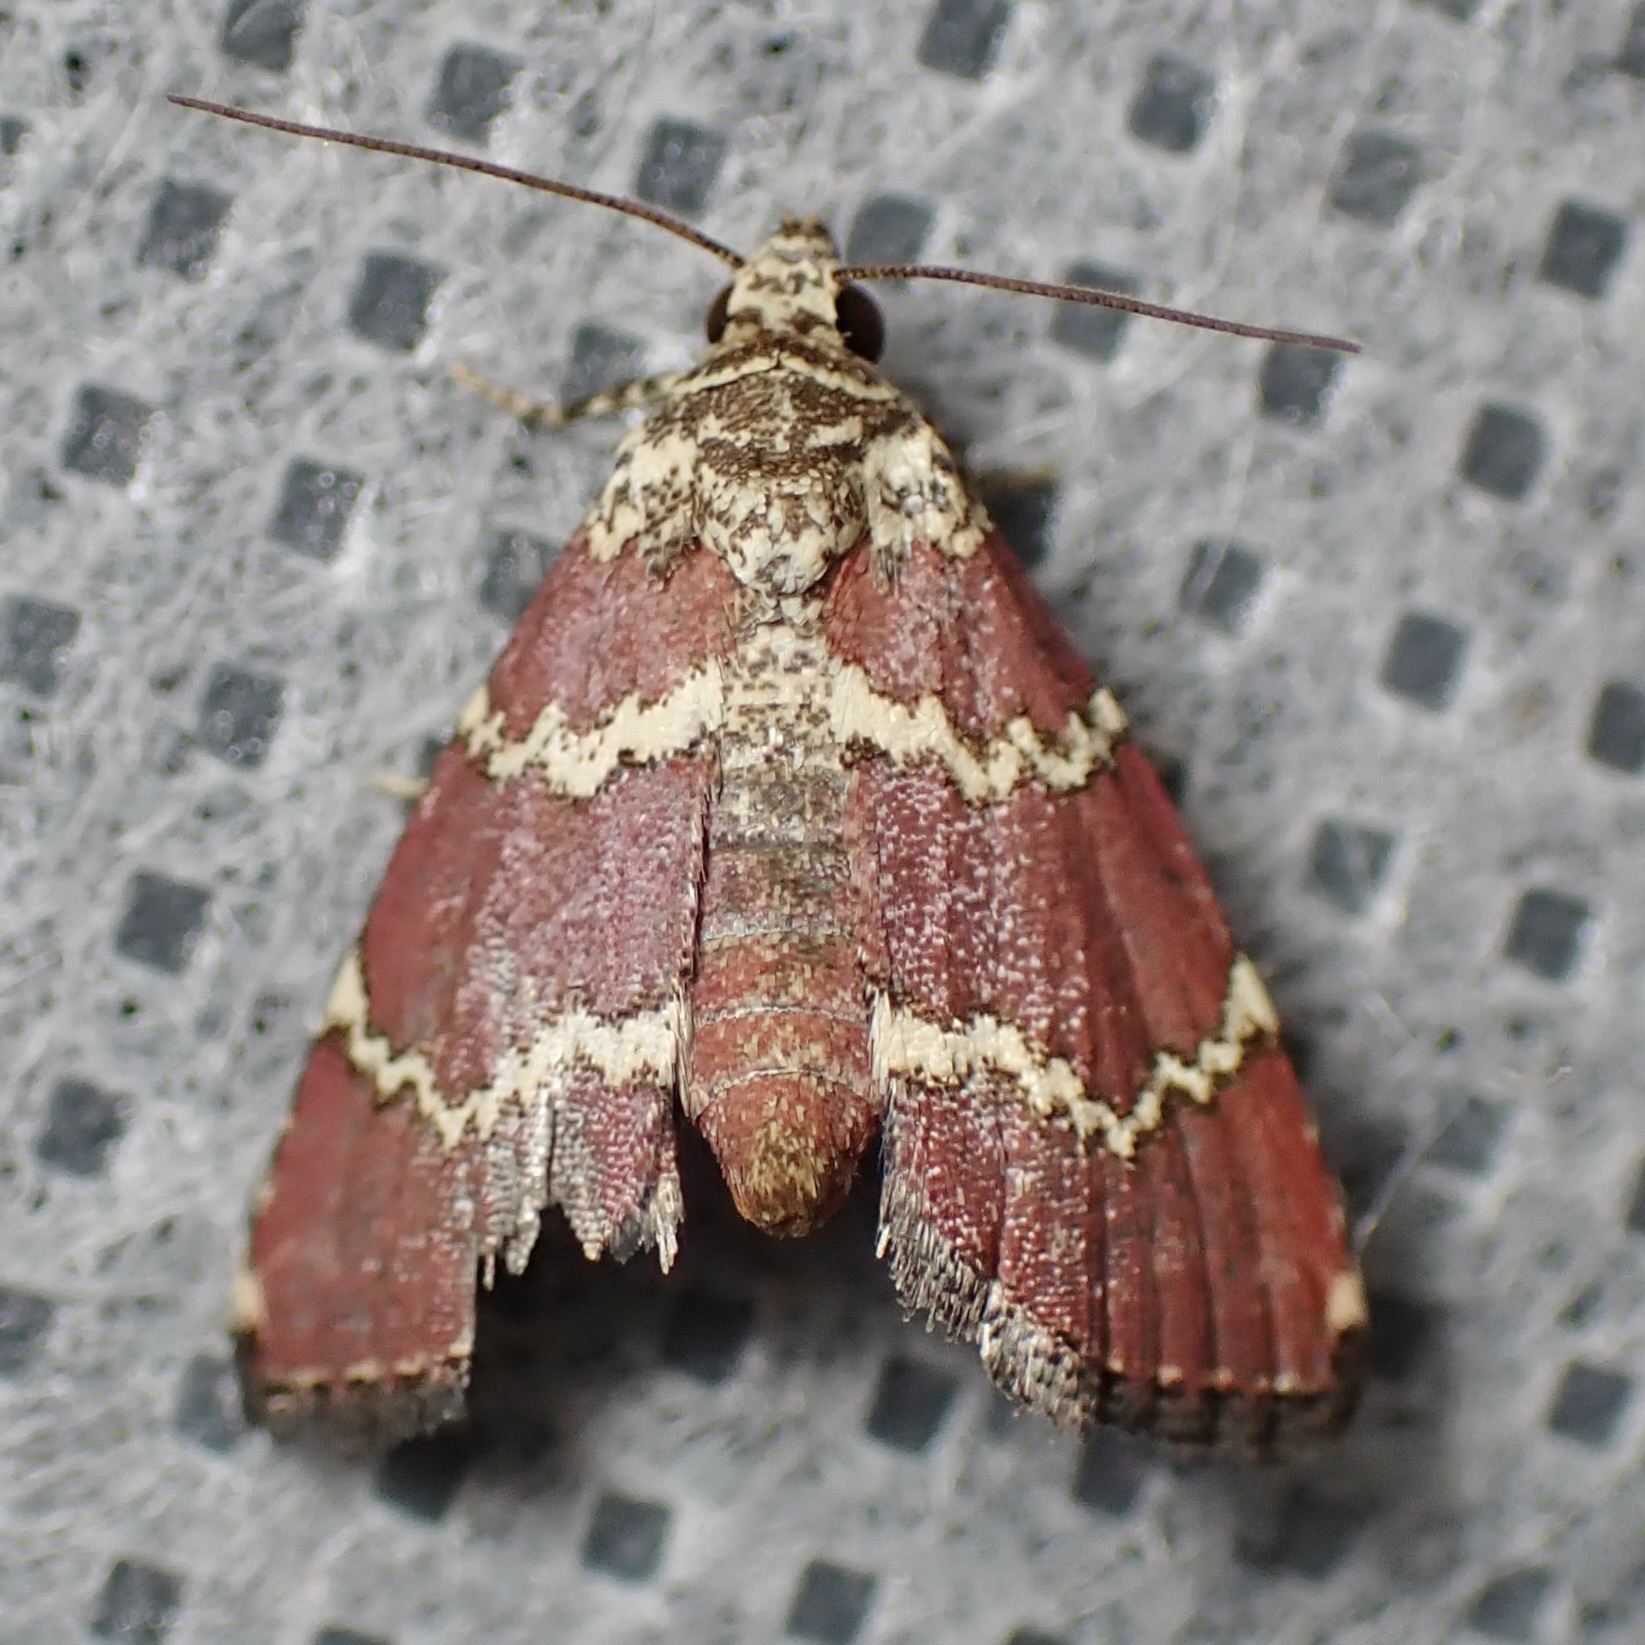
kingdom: Animalia
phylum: Arthropoda
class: Insecta
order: Lepidoptera
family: Noctuidae
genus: Phoenicophanta
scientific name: Phoenicophanta modestula
